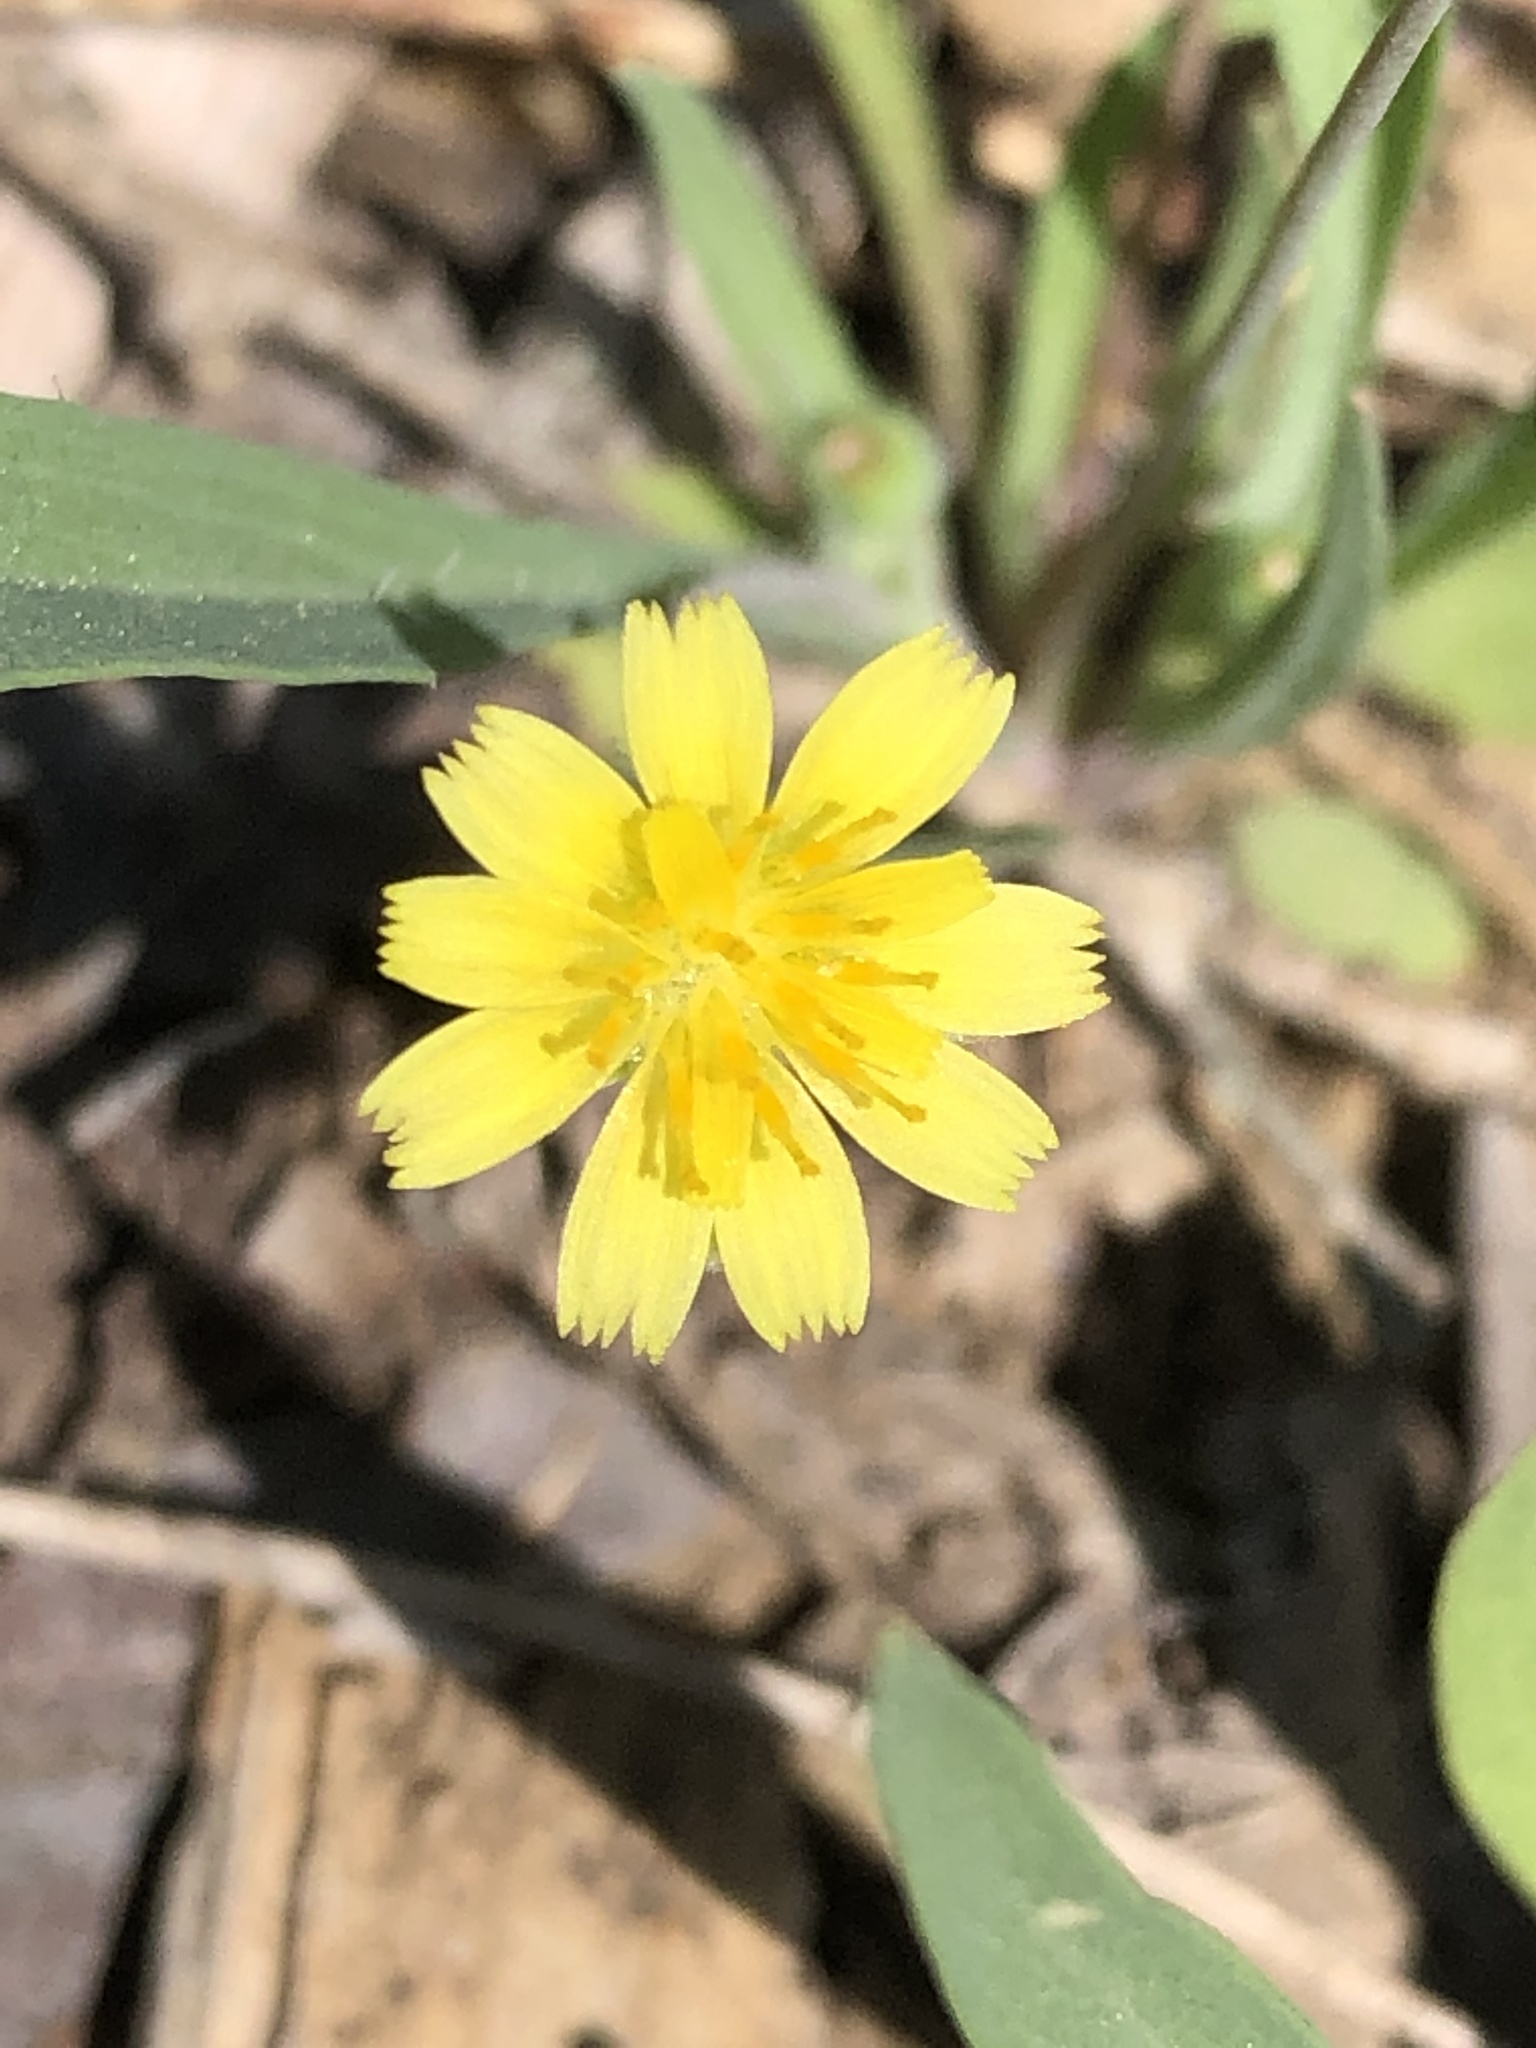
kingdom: Plantae
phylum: Tracheophyta
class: Magnoliopsida
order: Asterales
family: Asteraceae
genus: Krigia
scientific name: Krigia cespitosa
